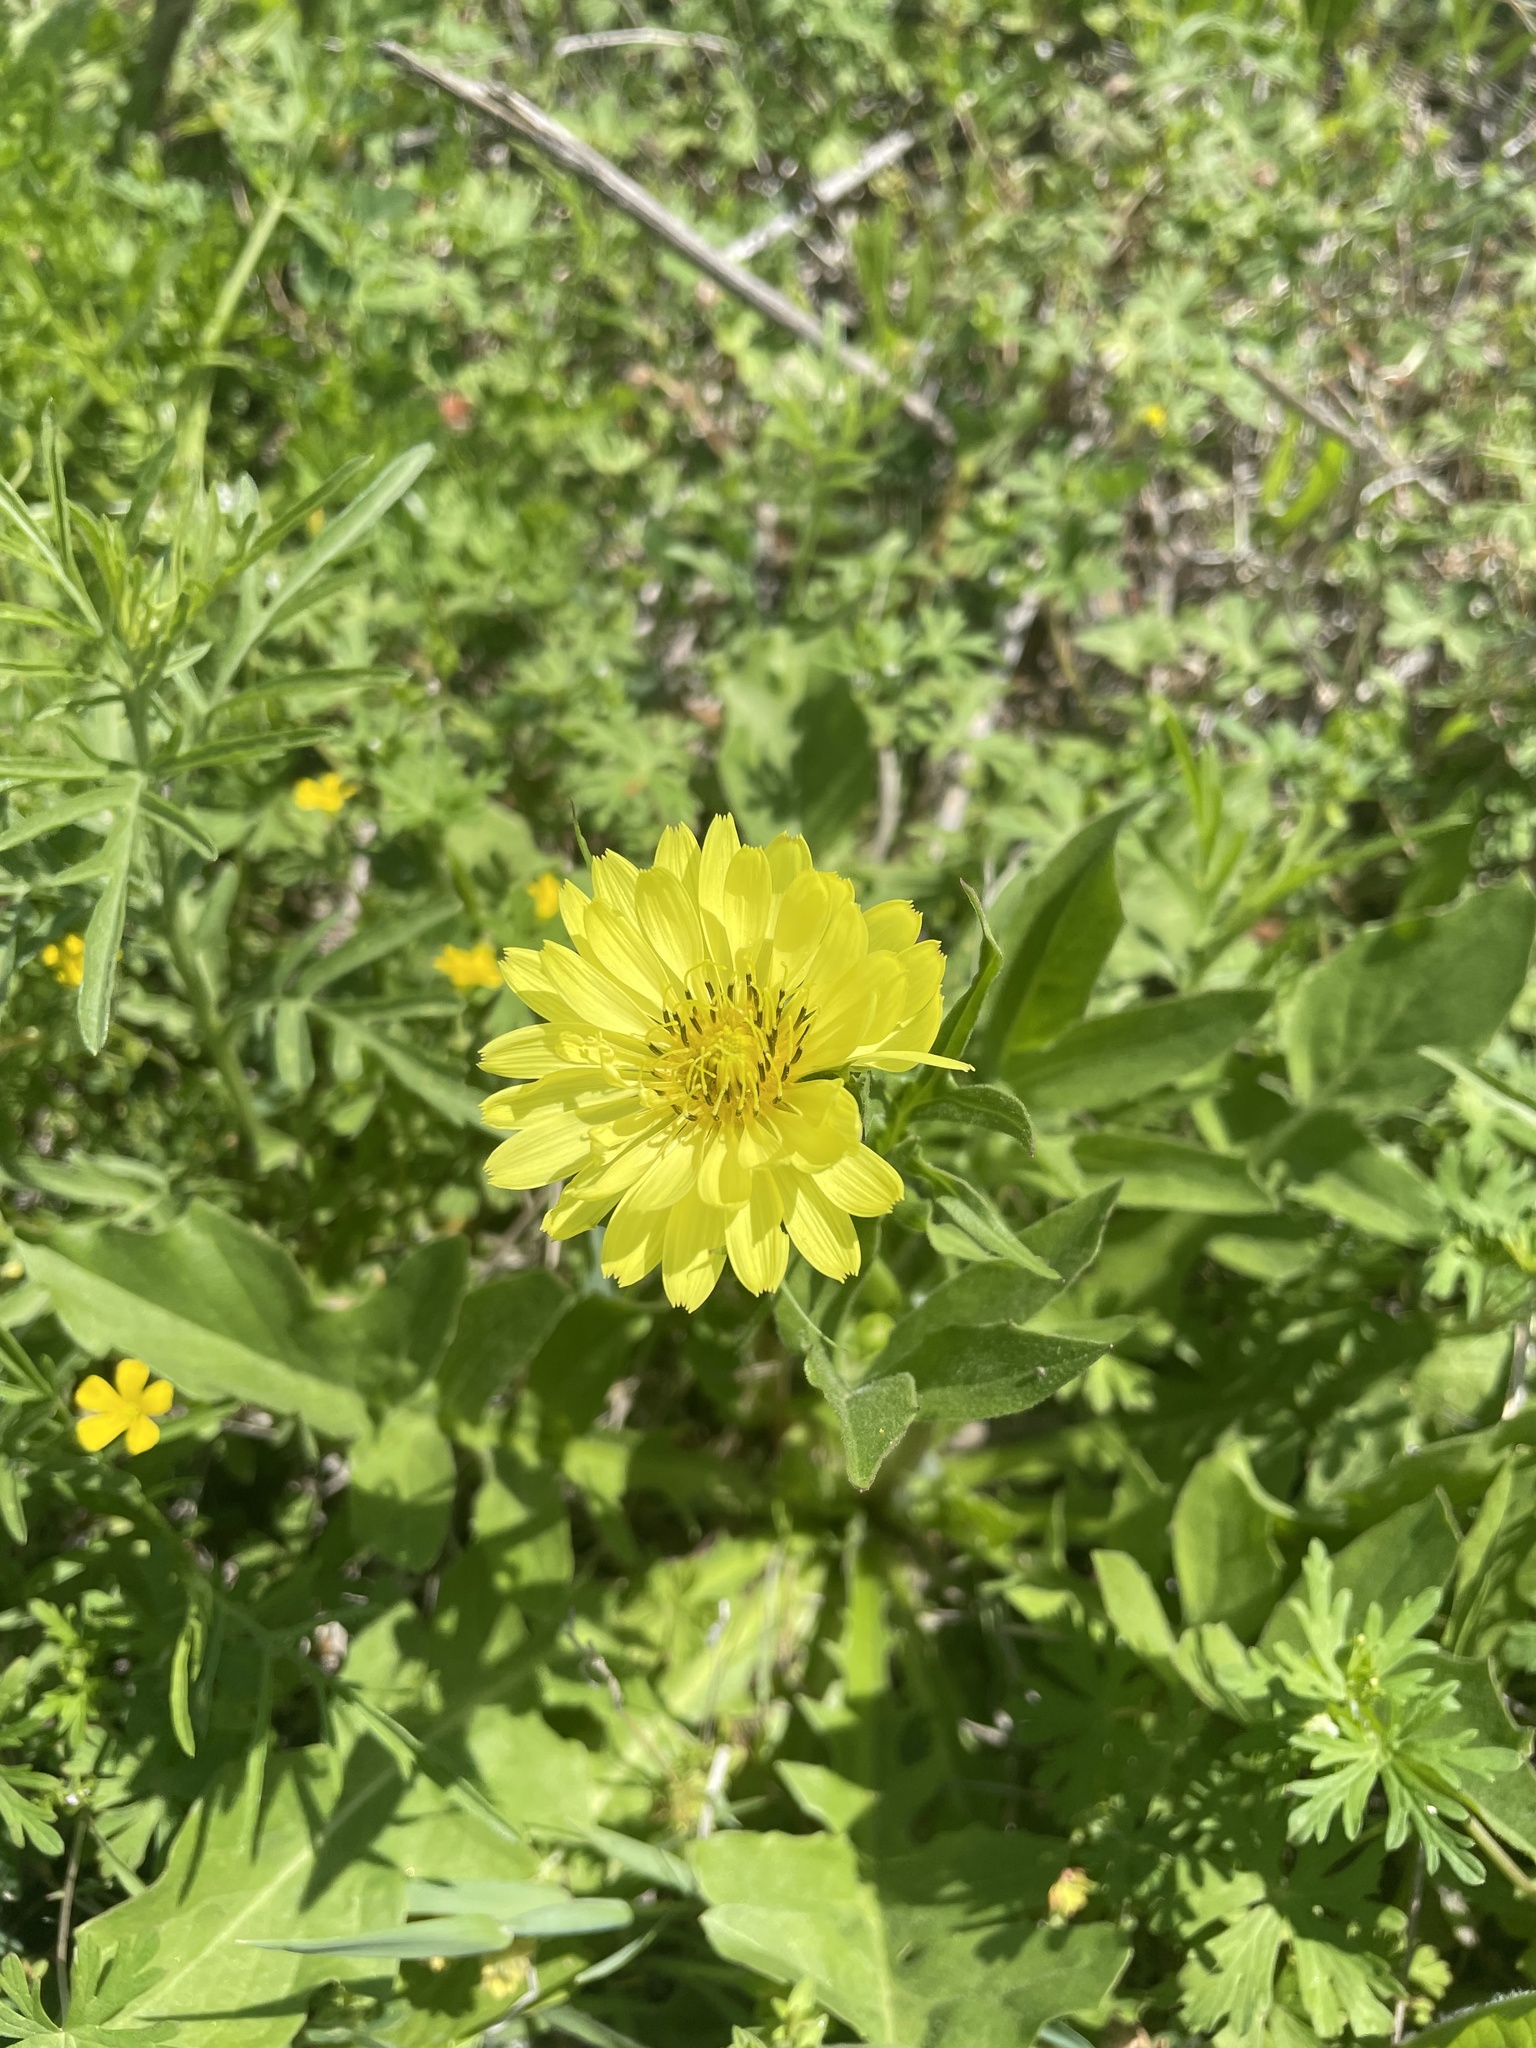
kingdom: Plantae
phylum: Tracheophyta
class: Magnoliopsida
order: Asterales
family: Asteraceae
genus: Pyrrhopappus
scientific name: Pyrrhopappus pauciflorus
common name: Texas false dandelion
